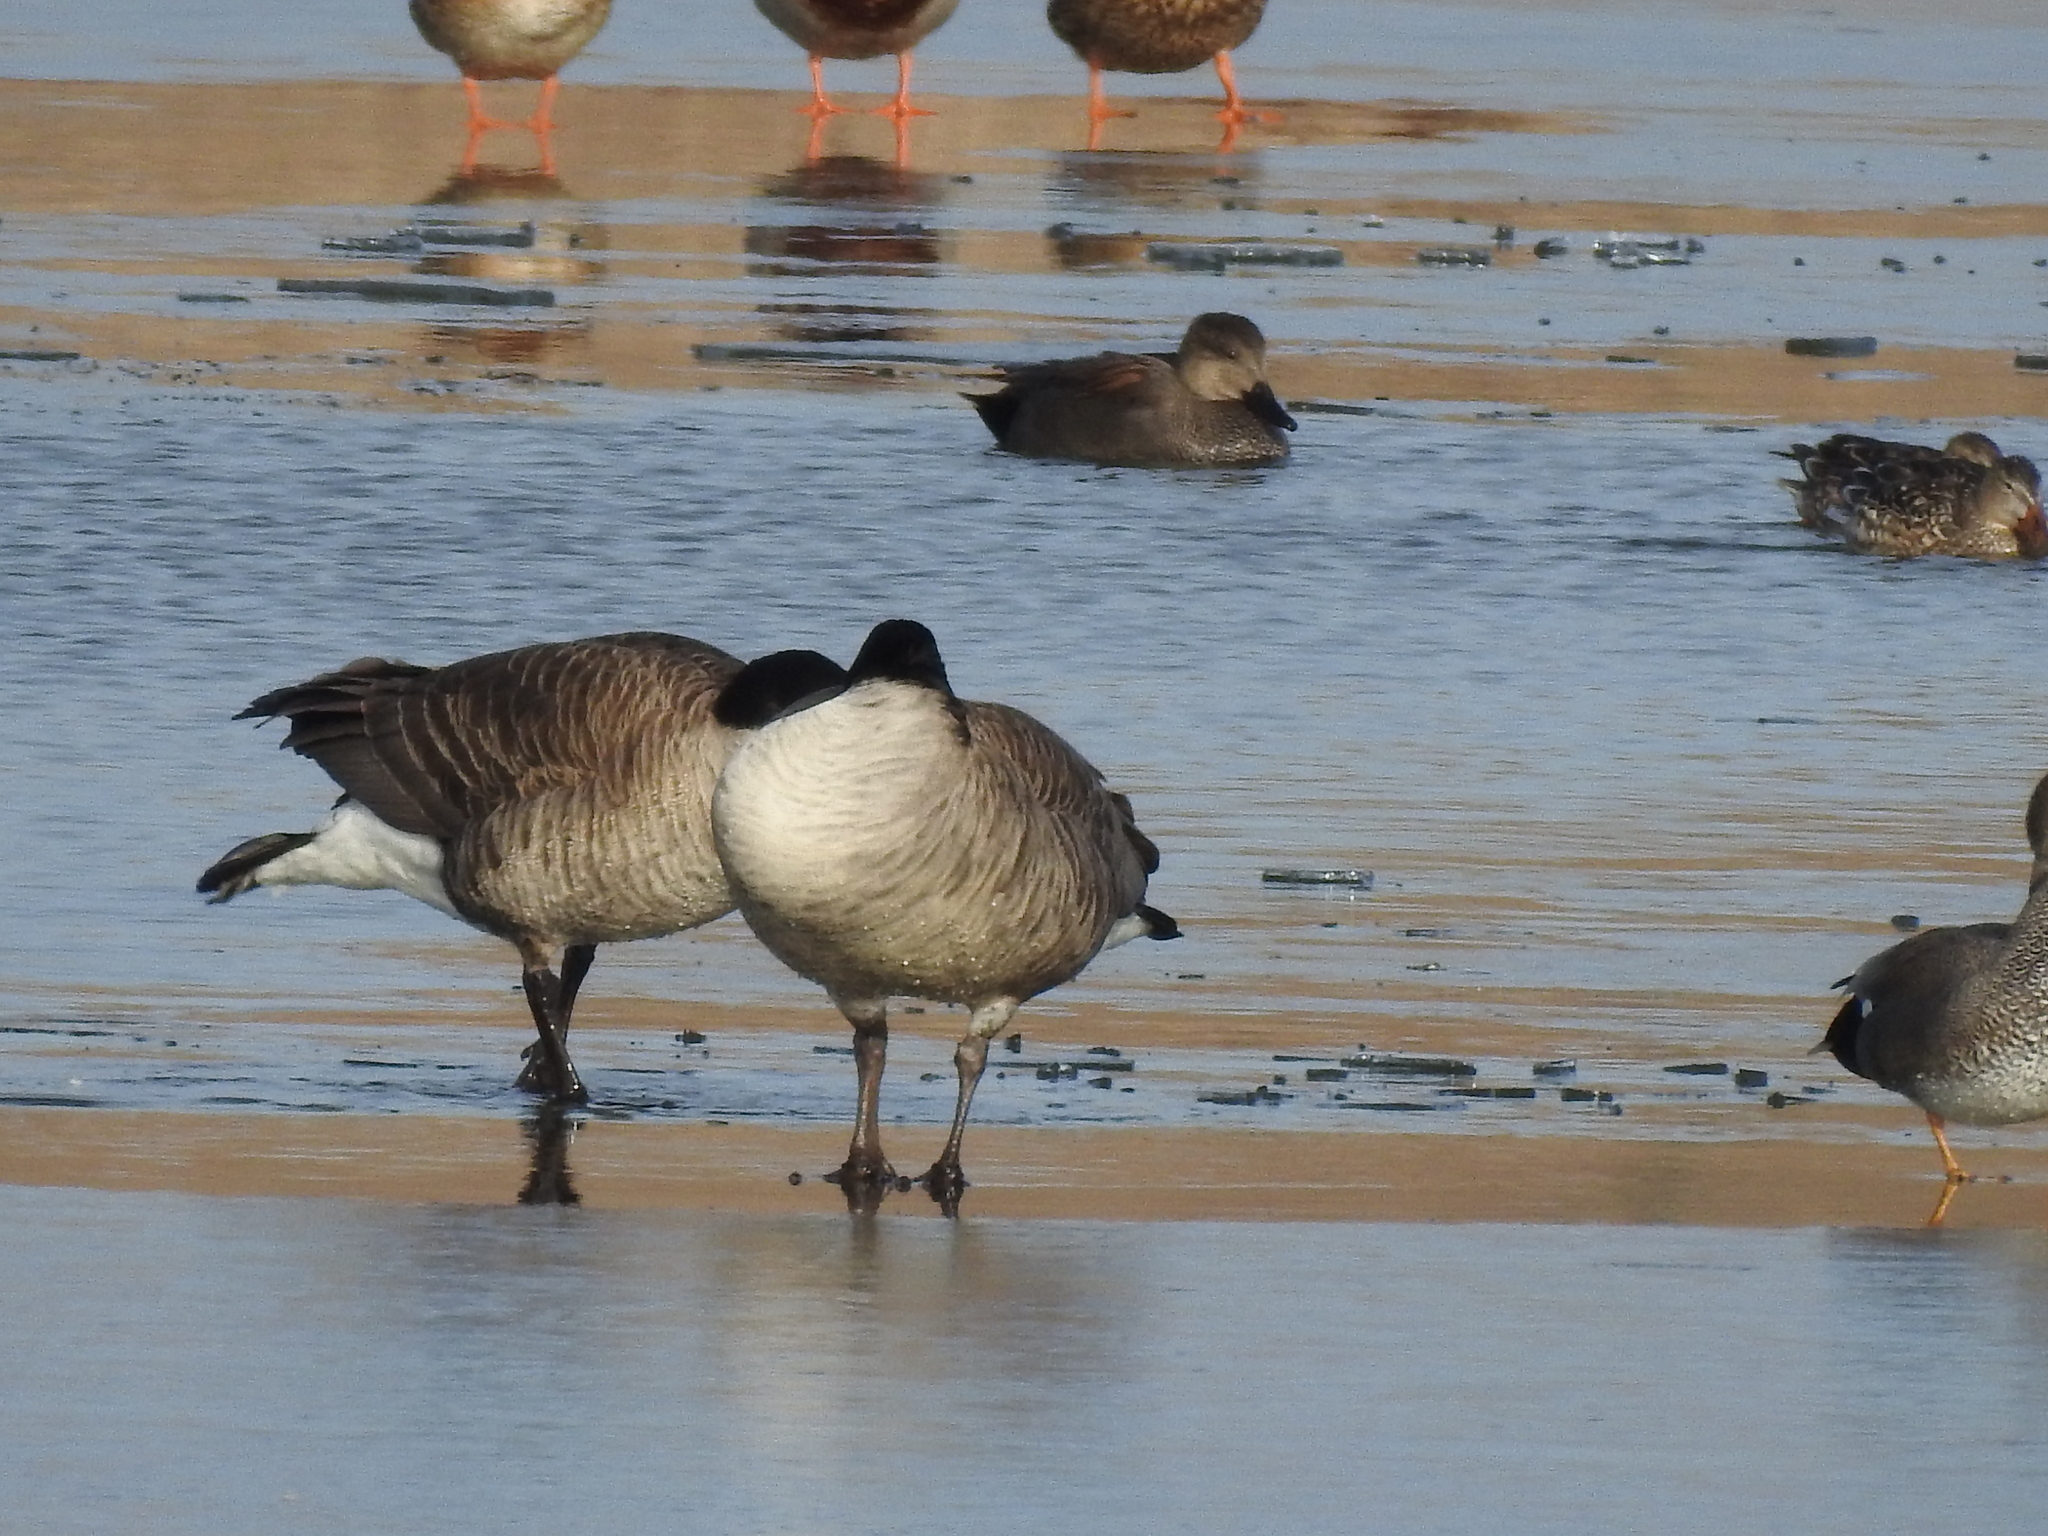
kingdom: Animalia
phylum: Chordata
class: Aves
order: Anseriformes
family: Anatidae
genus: Branta
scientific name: Branta canadensis
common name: Canada goose
